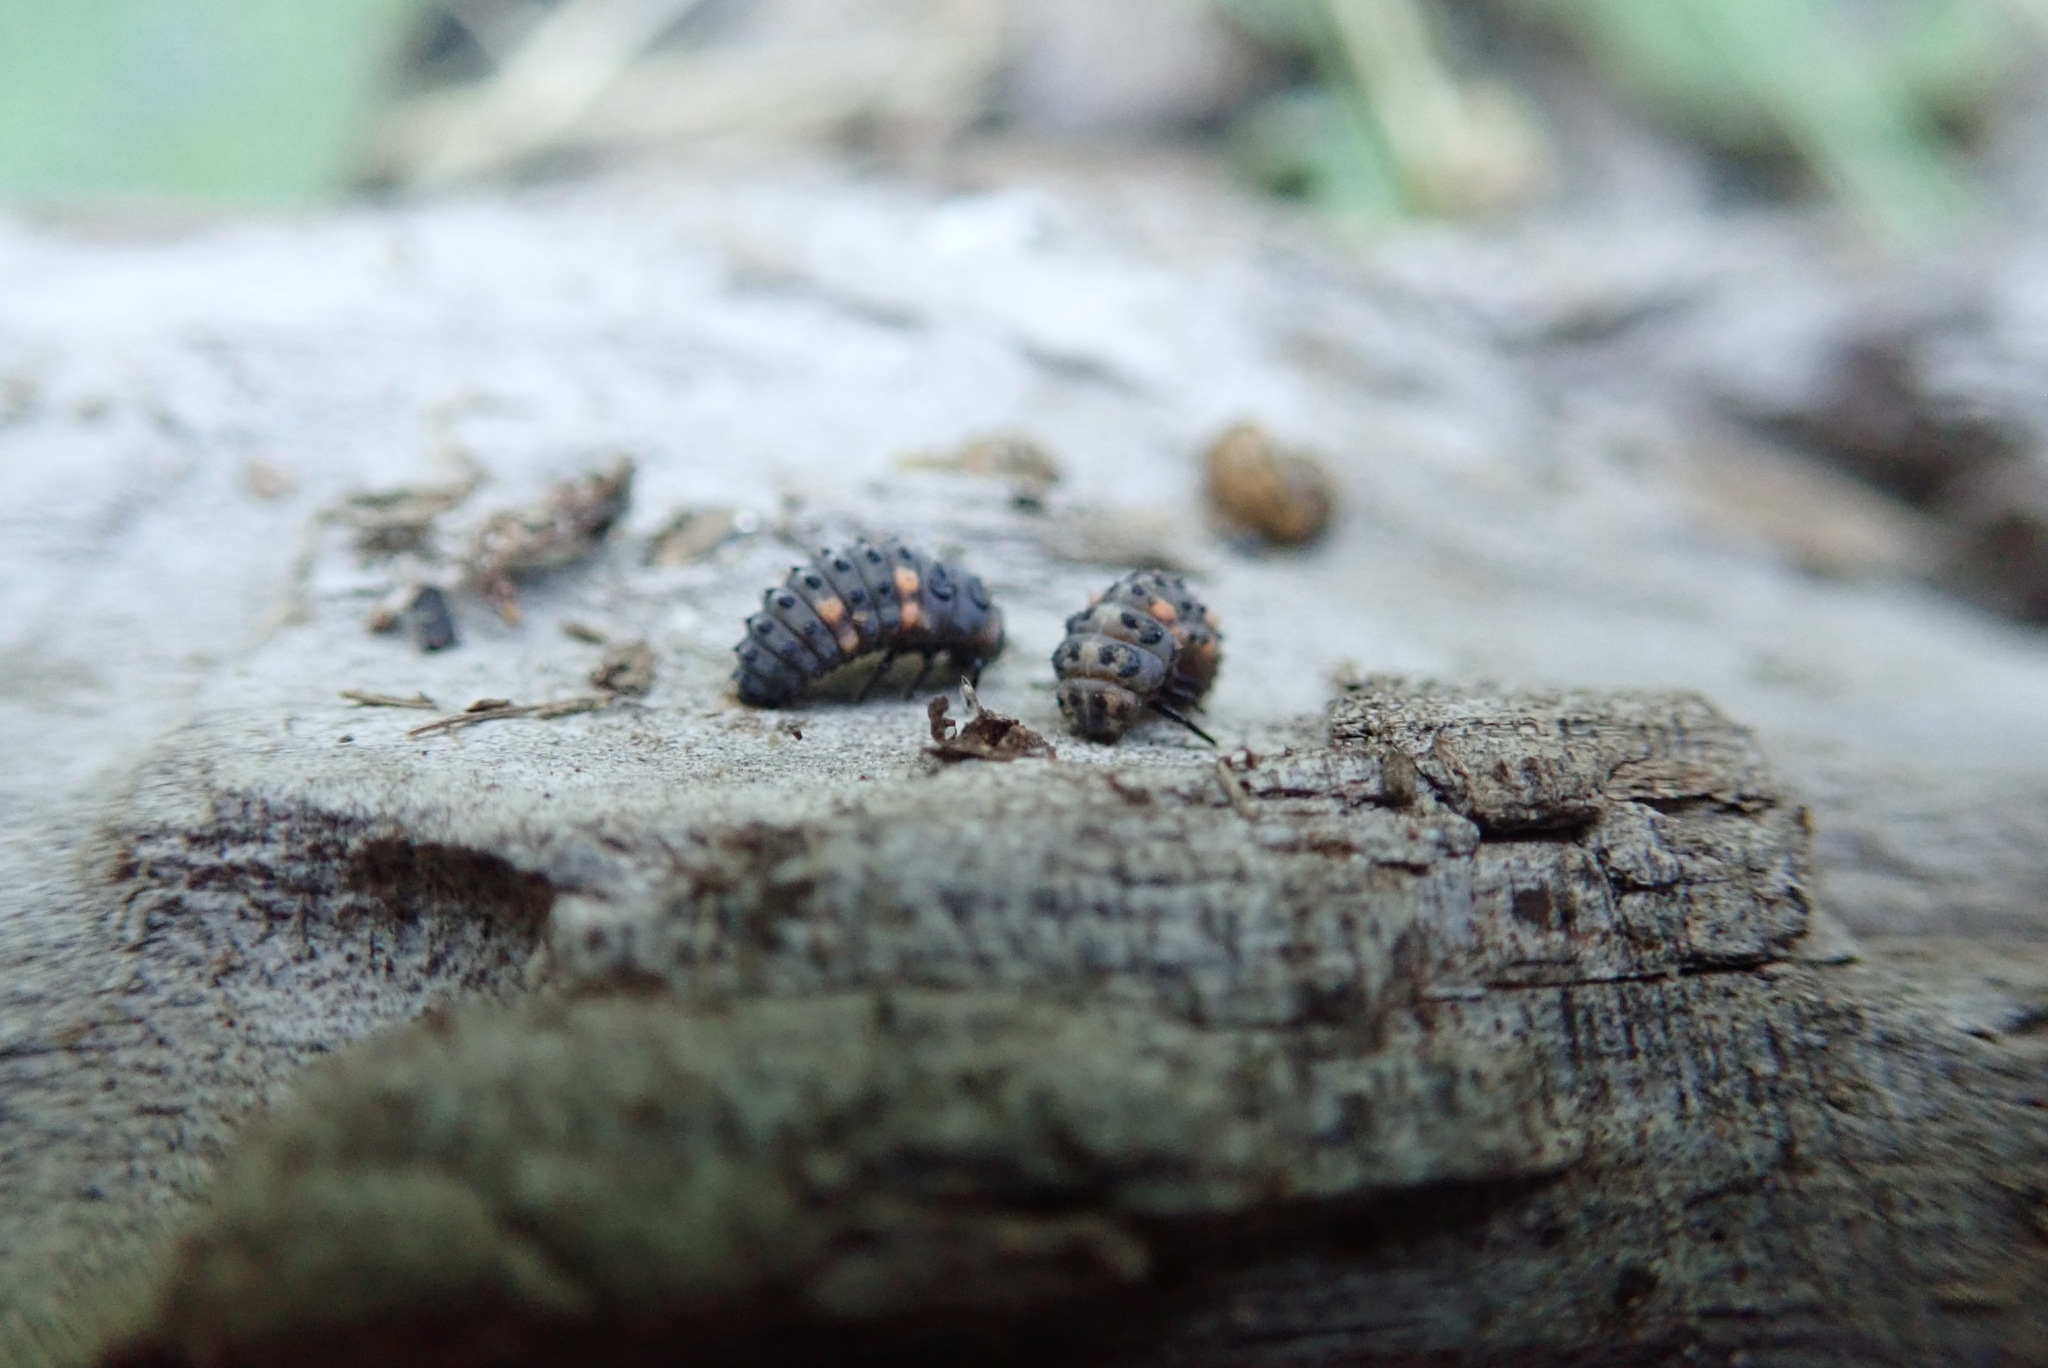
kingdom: Animalia
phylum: Arthropoda
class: Insecta
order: Coleoptera
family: Coccinellidae
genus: Coccinella
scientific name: Coccinella undecimpunctata
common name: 11-spot ladybird
